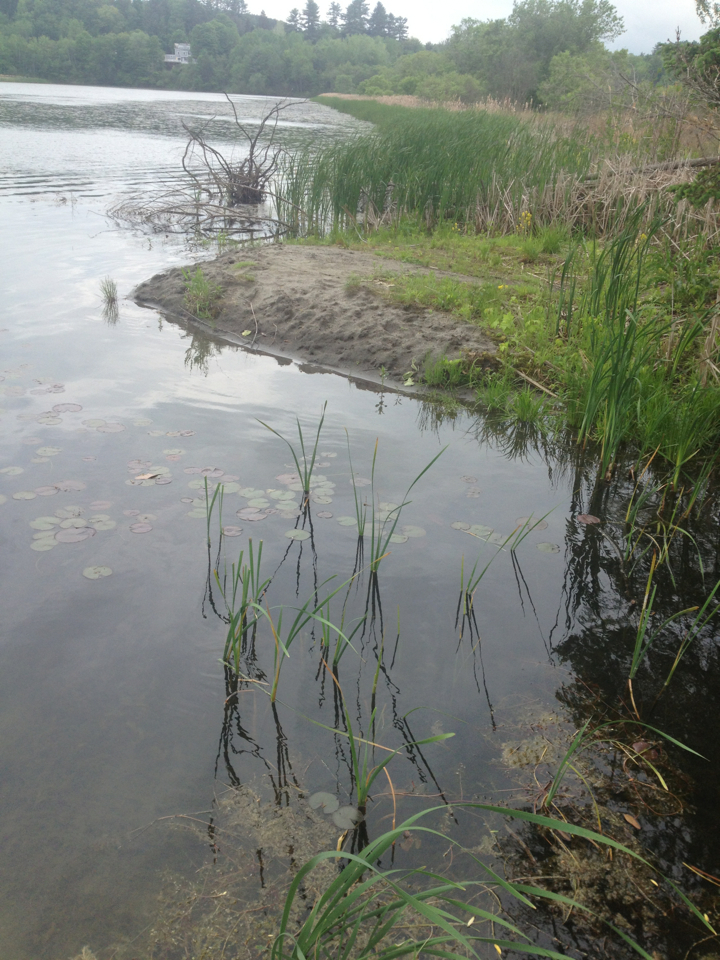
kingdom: Plantae
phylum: Tracheophyta
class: Liliopsida
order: Poales
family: Typhaceae
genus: Typha
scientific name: Typha latifolia
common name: Broadleaf cattail
